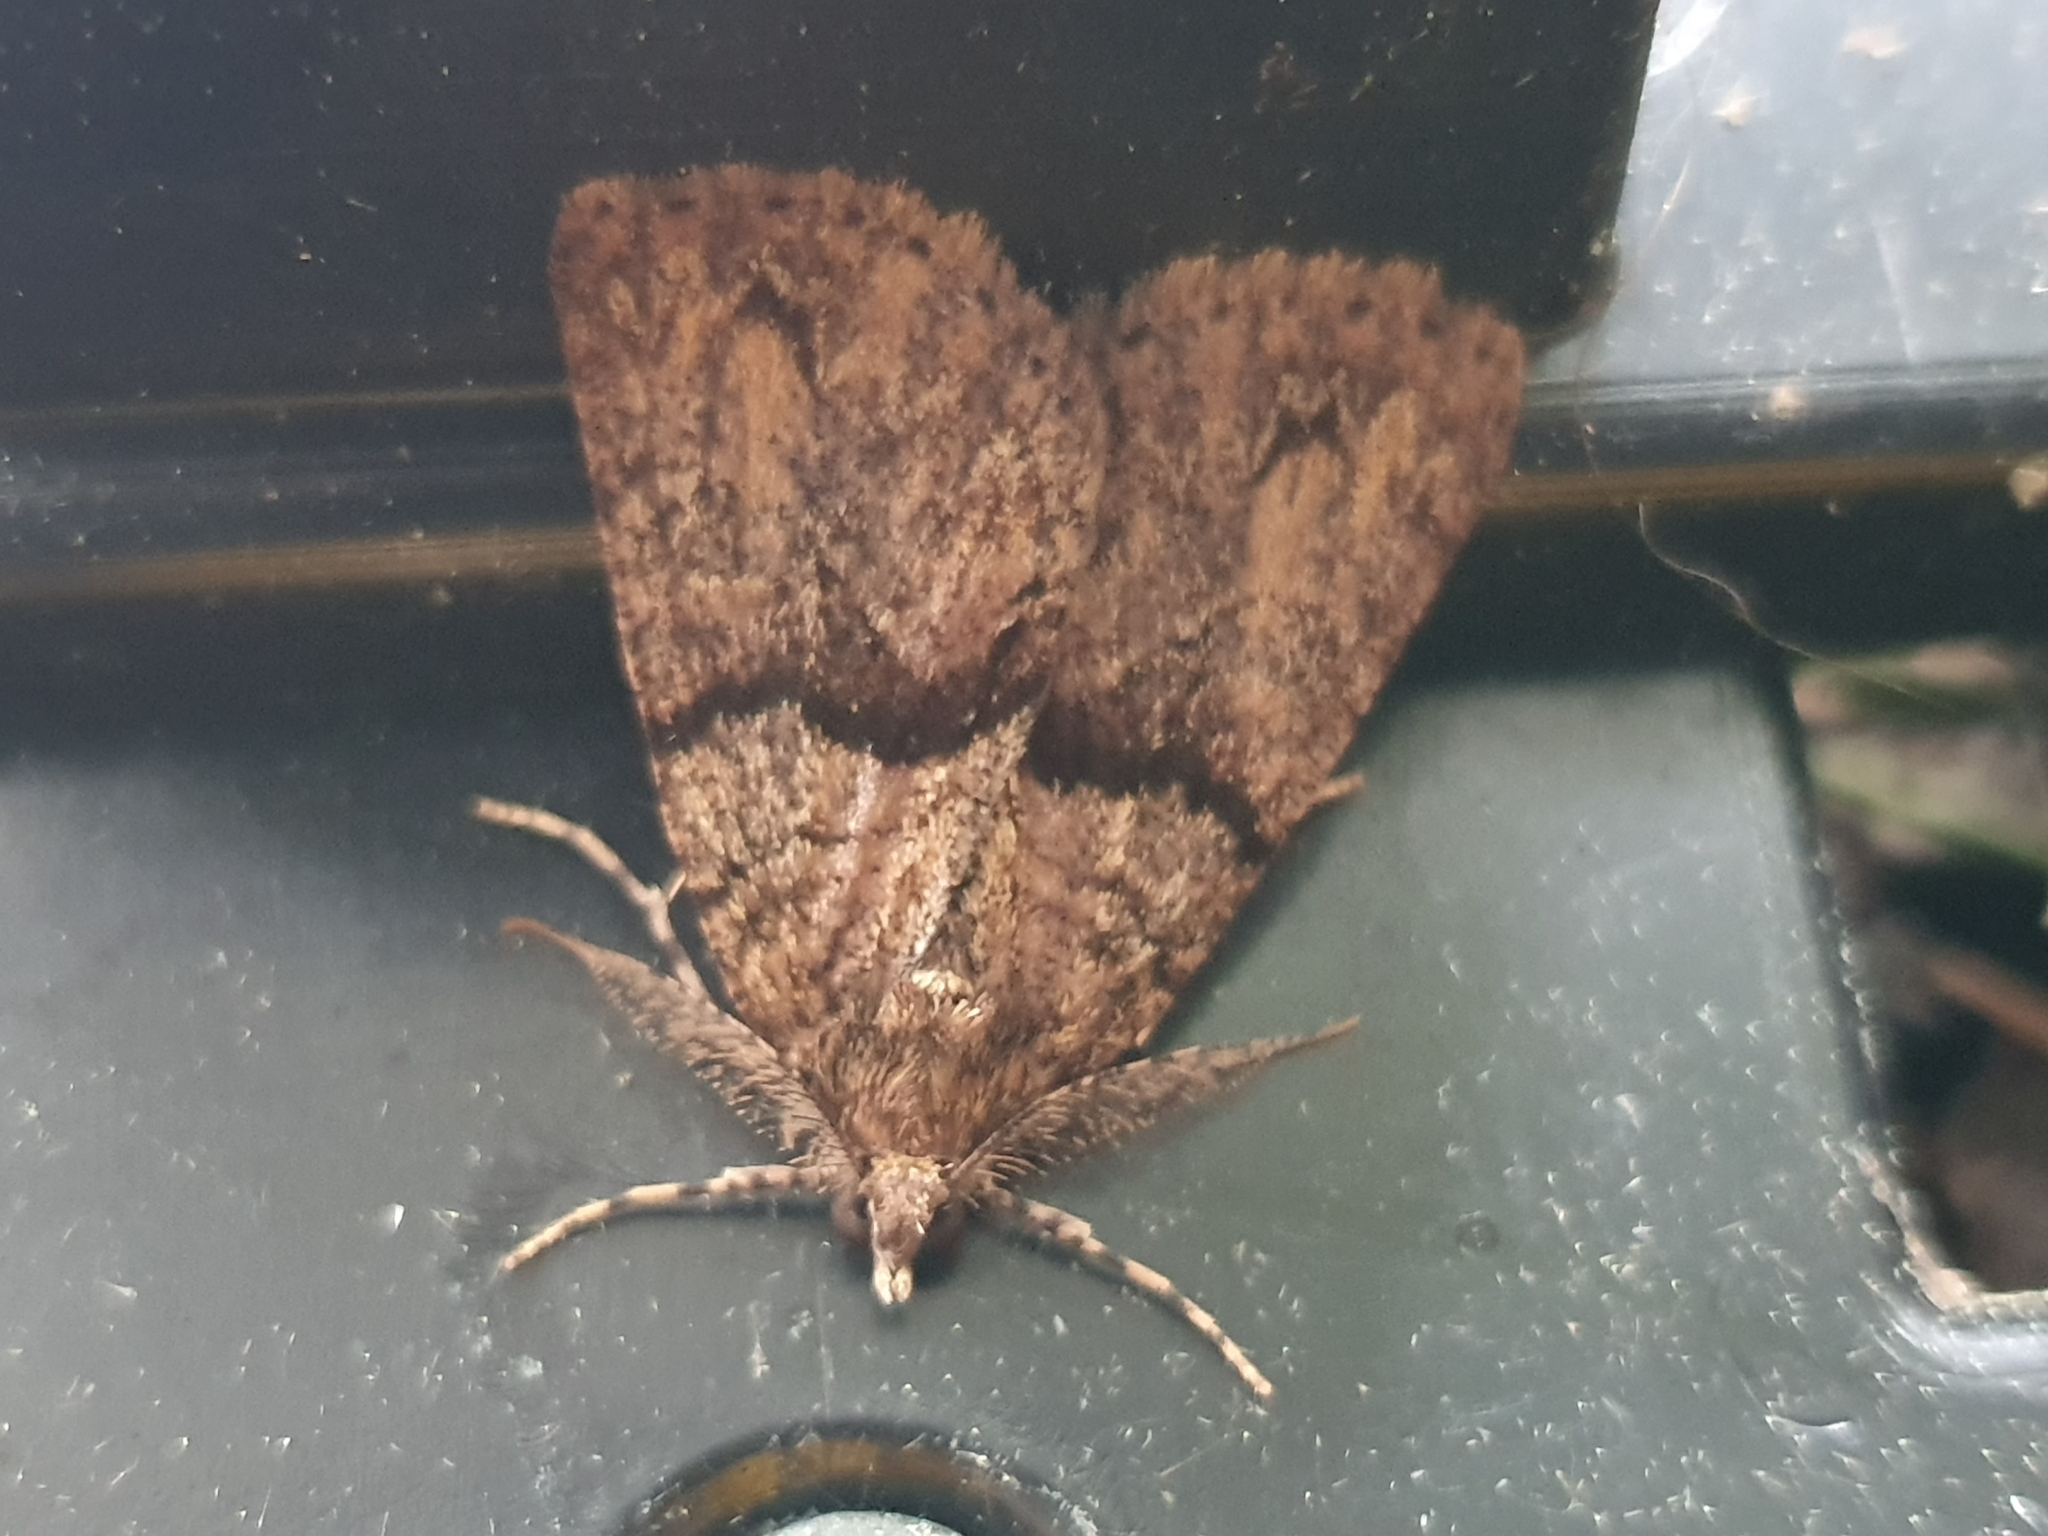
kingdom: Animalia
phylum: Arthropoda
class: Insecta
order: Lepidoptera
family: Geometridae
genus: Pseudocoremia
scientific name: Pseudocoremia suavis
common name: Common forest looper
